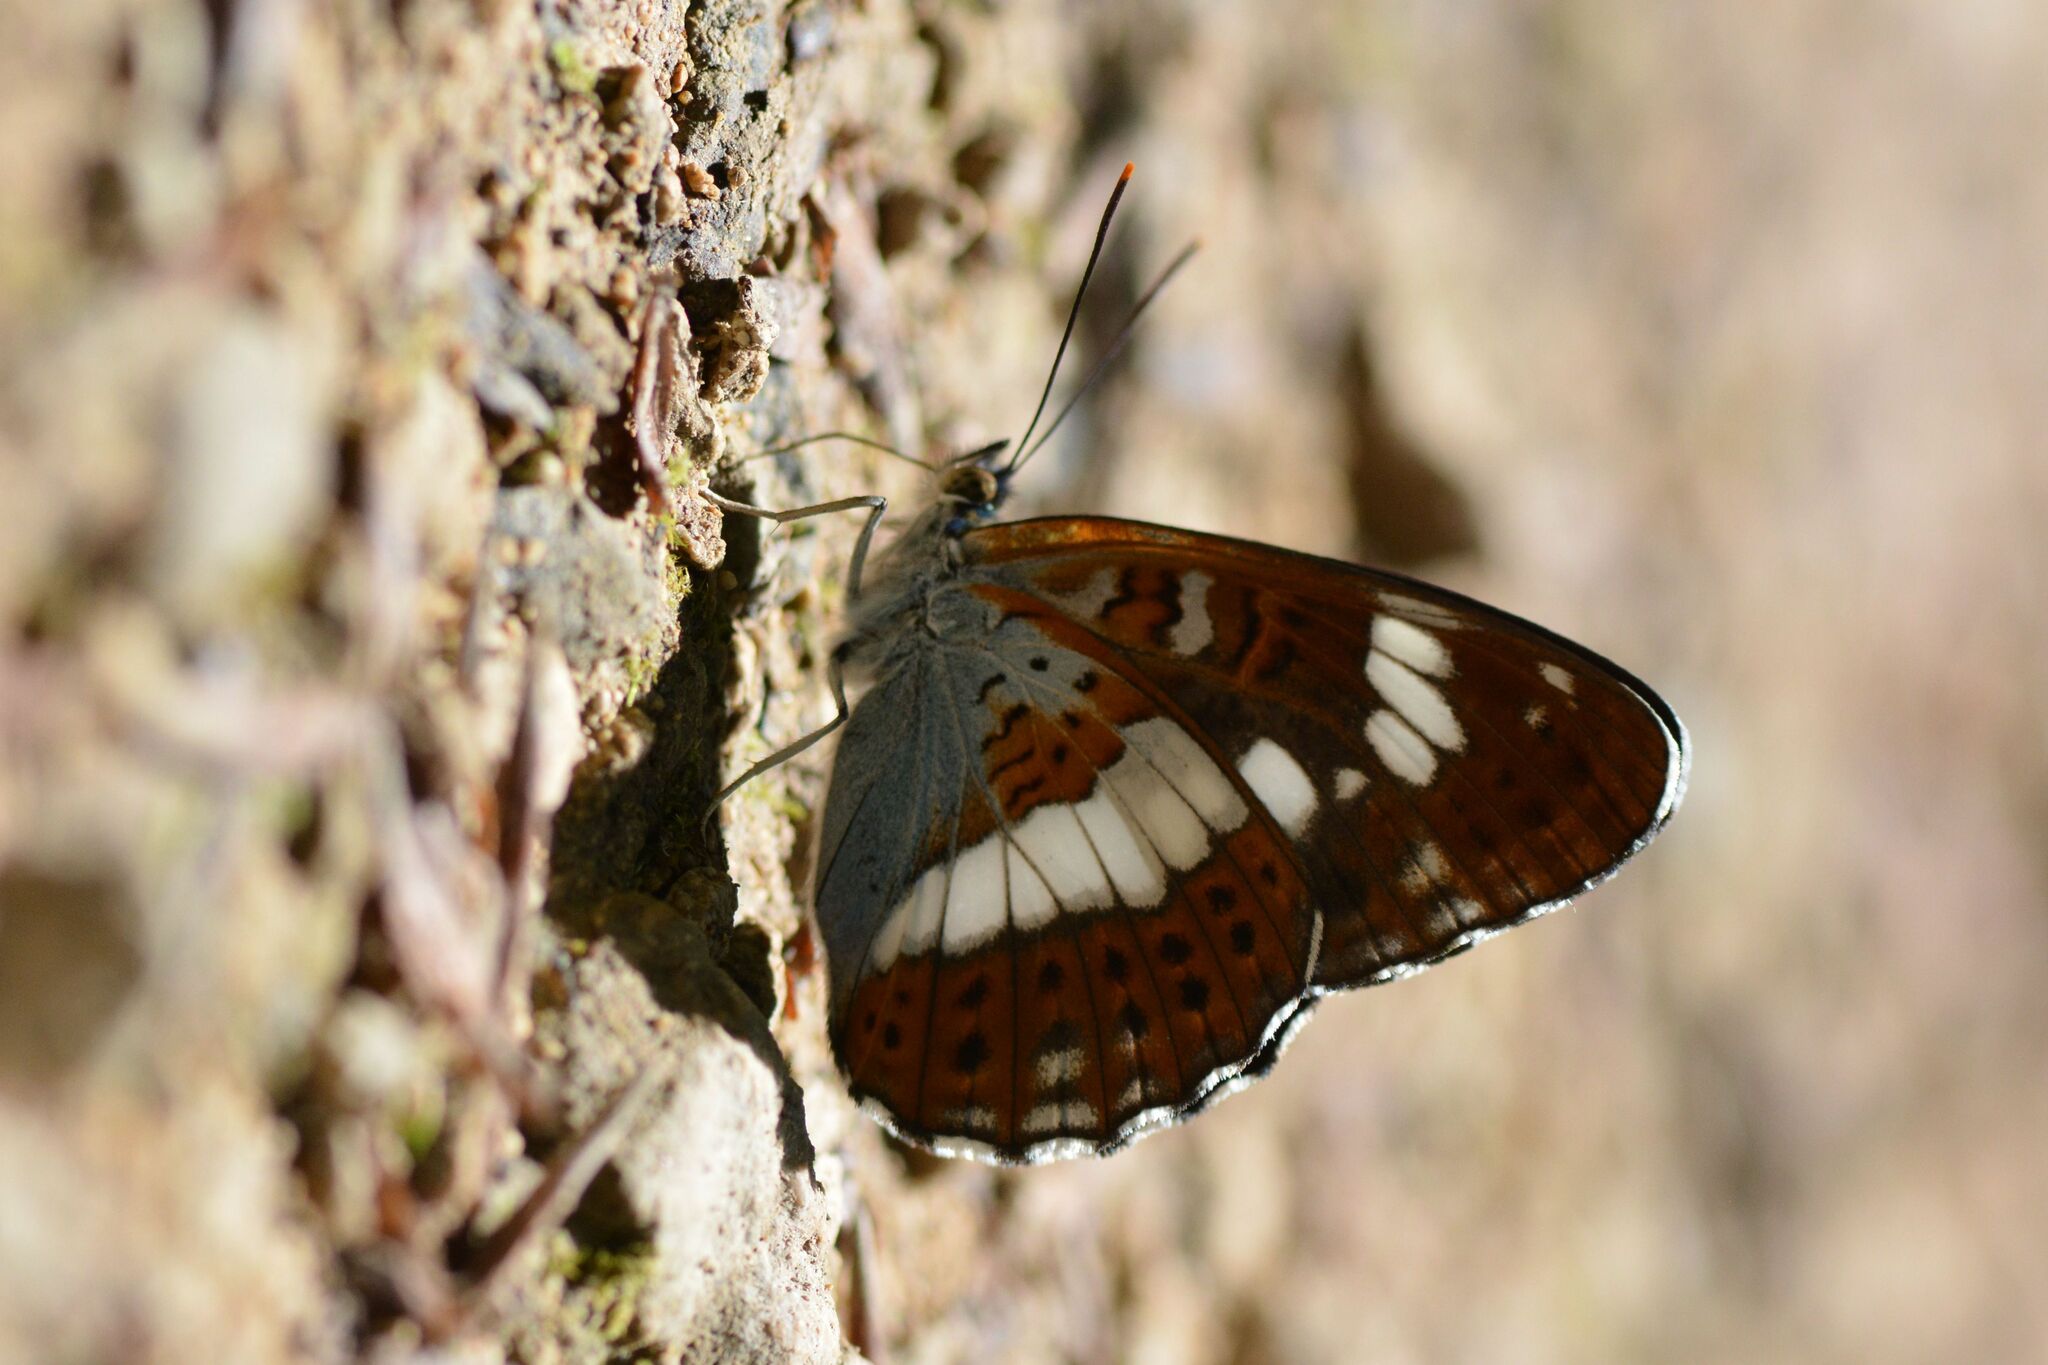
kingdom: Animalia
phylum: Arthropoda
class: Insecta
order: Lepidoptera
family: Nymphalidae
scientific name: Nymphalidae
